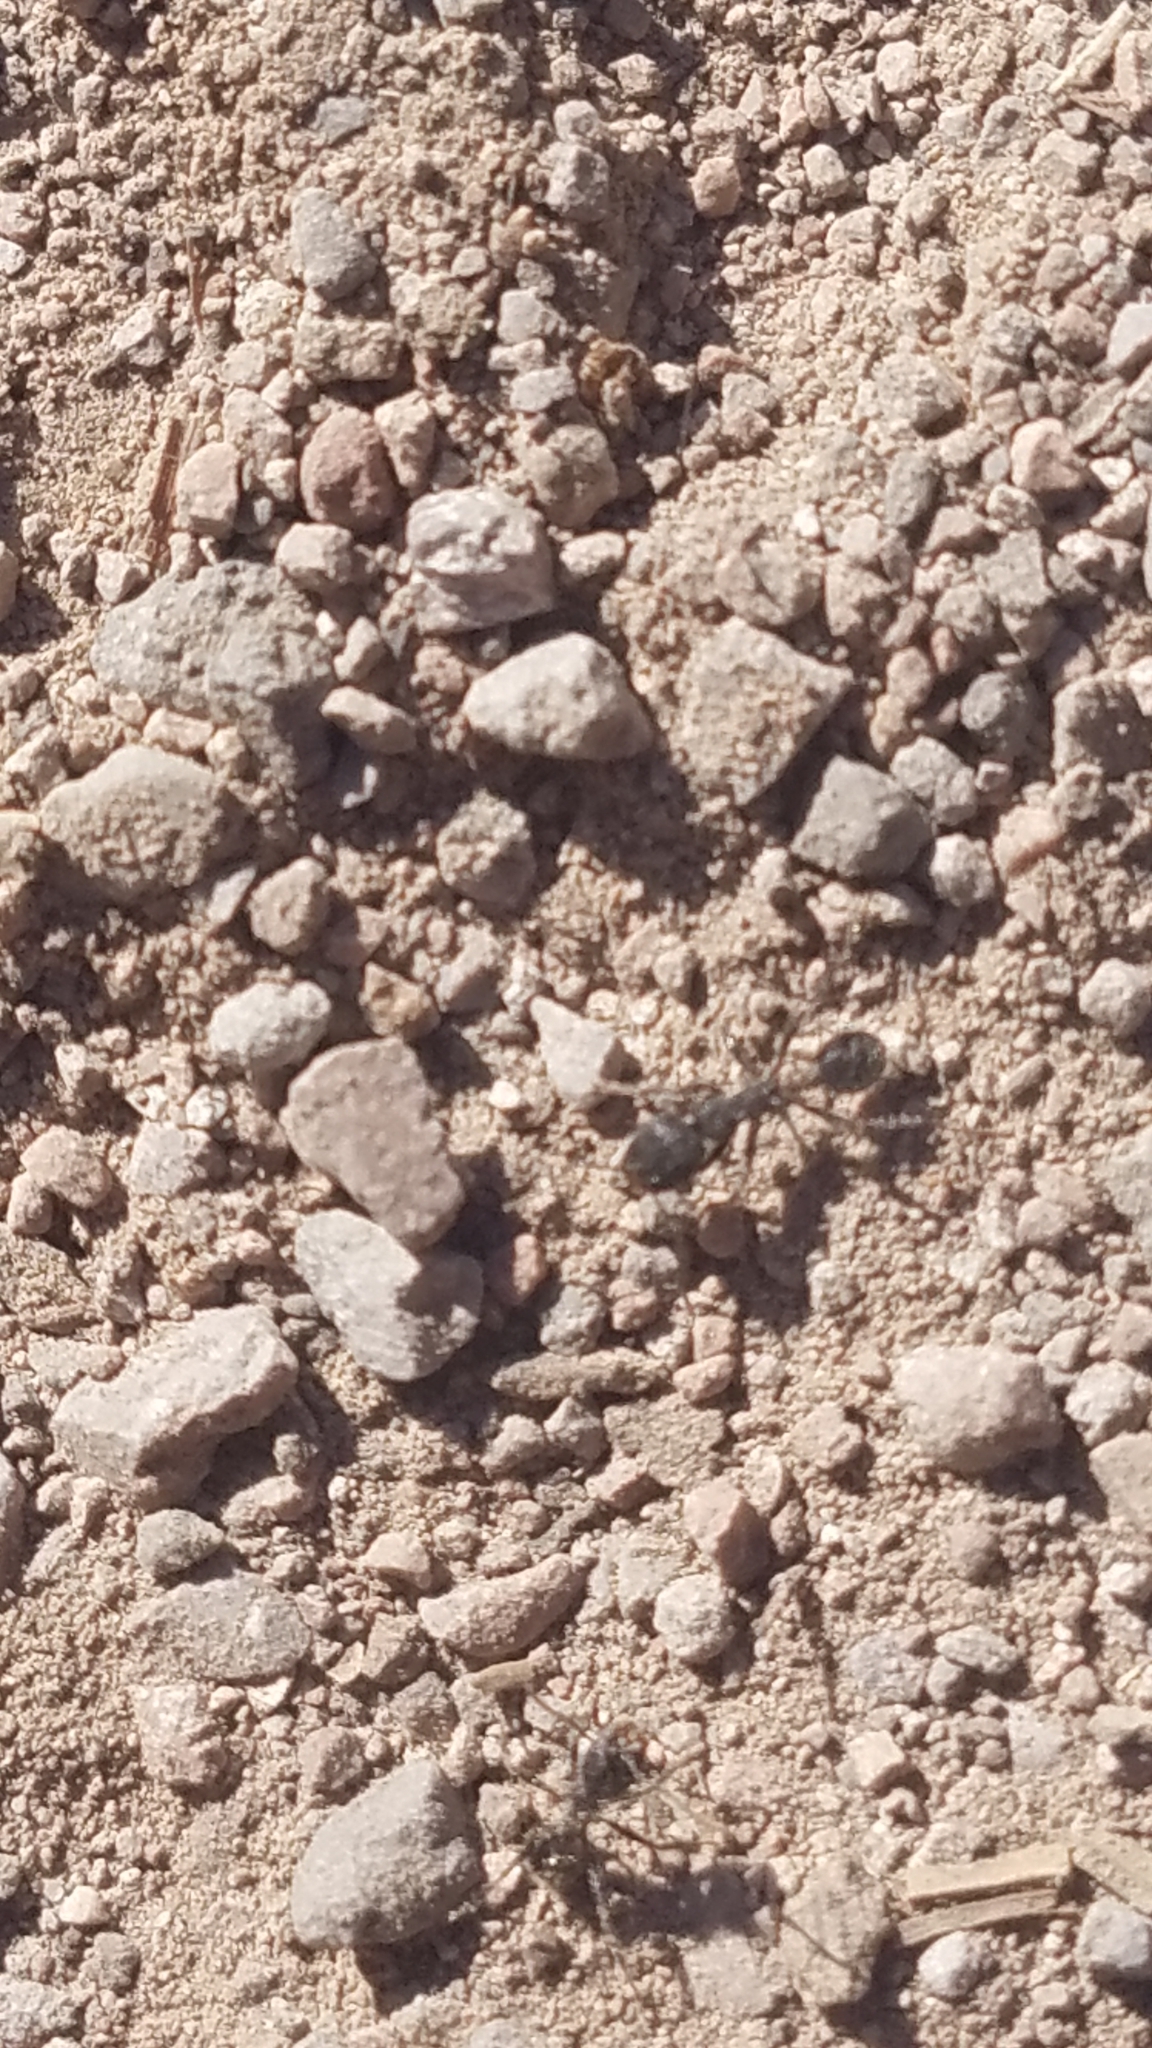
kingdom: Animalia
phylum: Arthropoda
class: Insecta
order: Hymenoptera
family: Formicidae
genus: Veromessor
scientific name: Veromessor andrei
